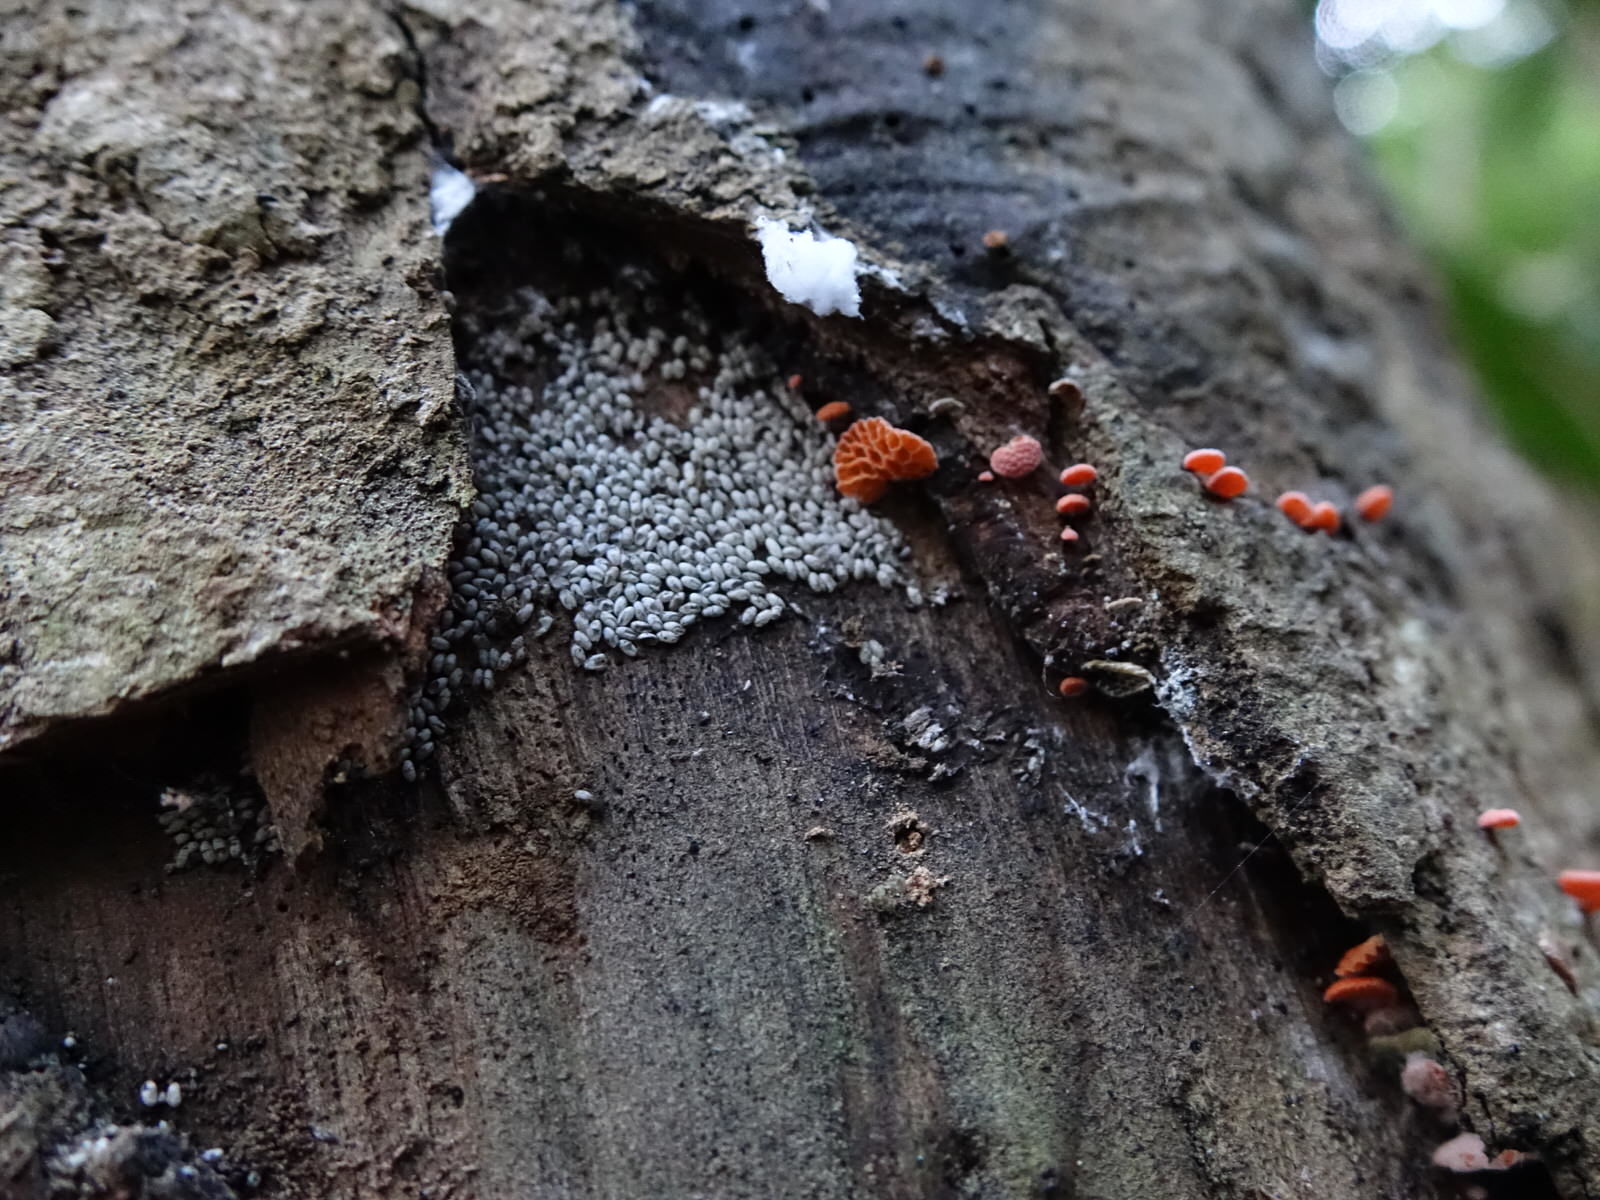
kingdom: Fungi
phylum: Basidiomycota
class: Agaricomycetes
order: Agaricales
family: Mycenaceae
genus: Favolaschia
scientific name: Favolaschia claudopus
